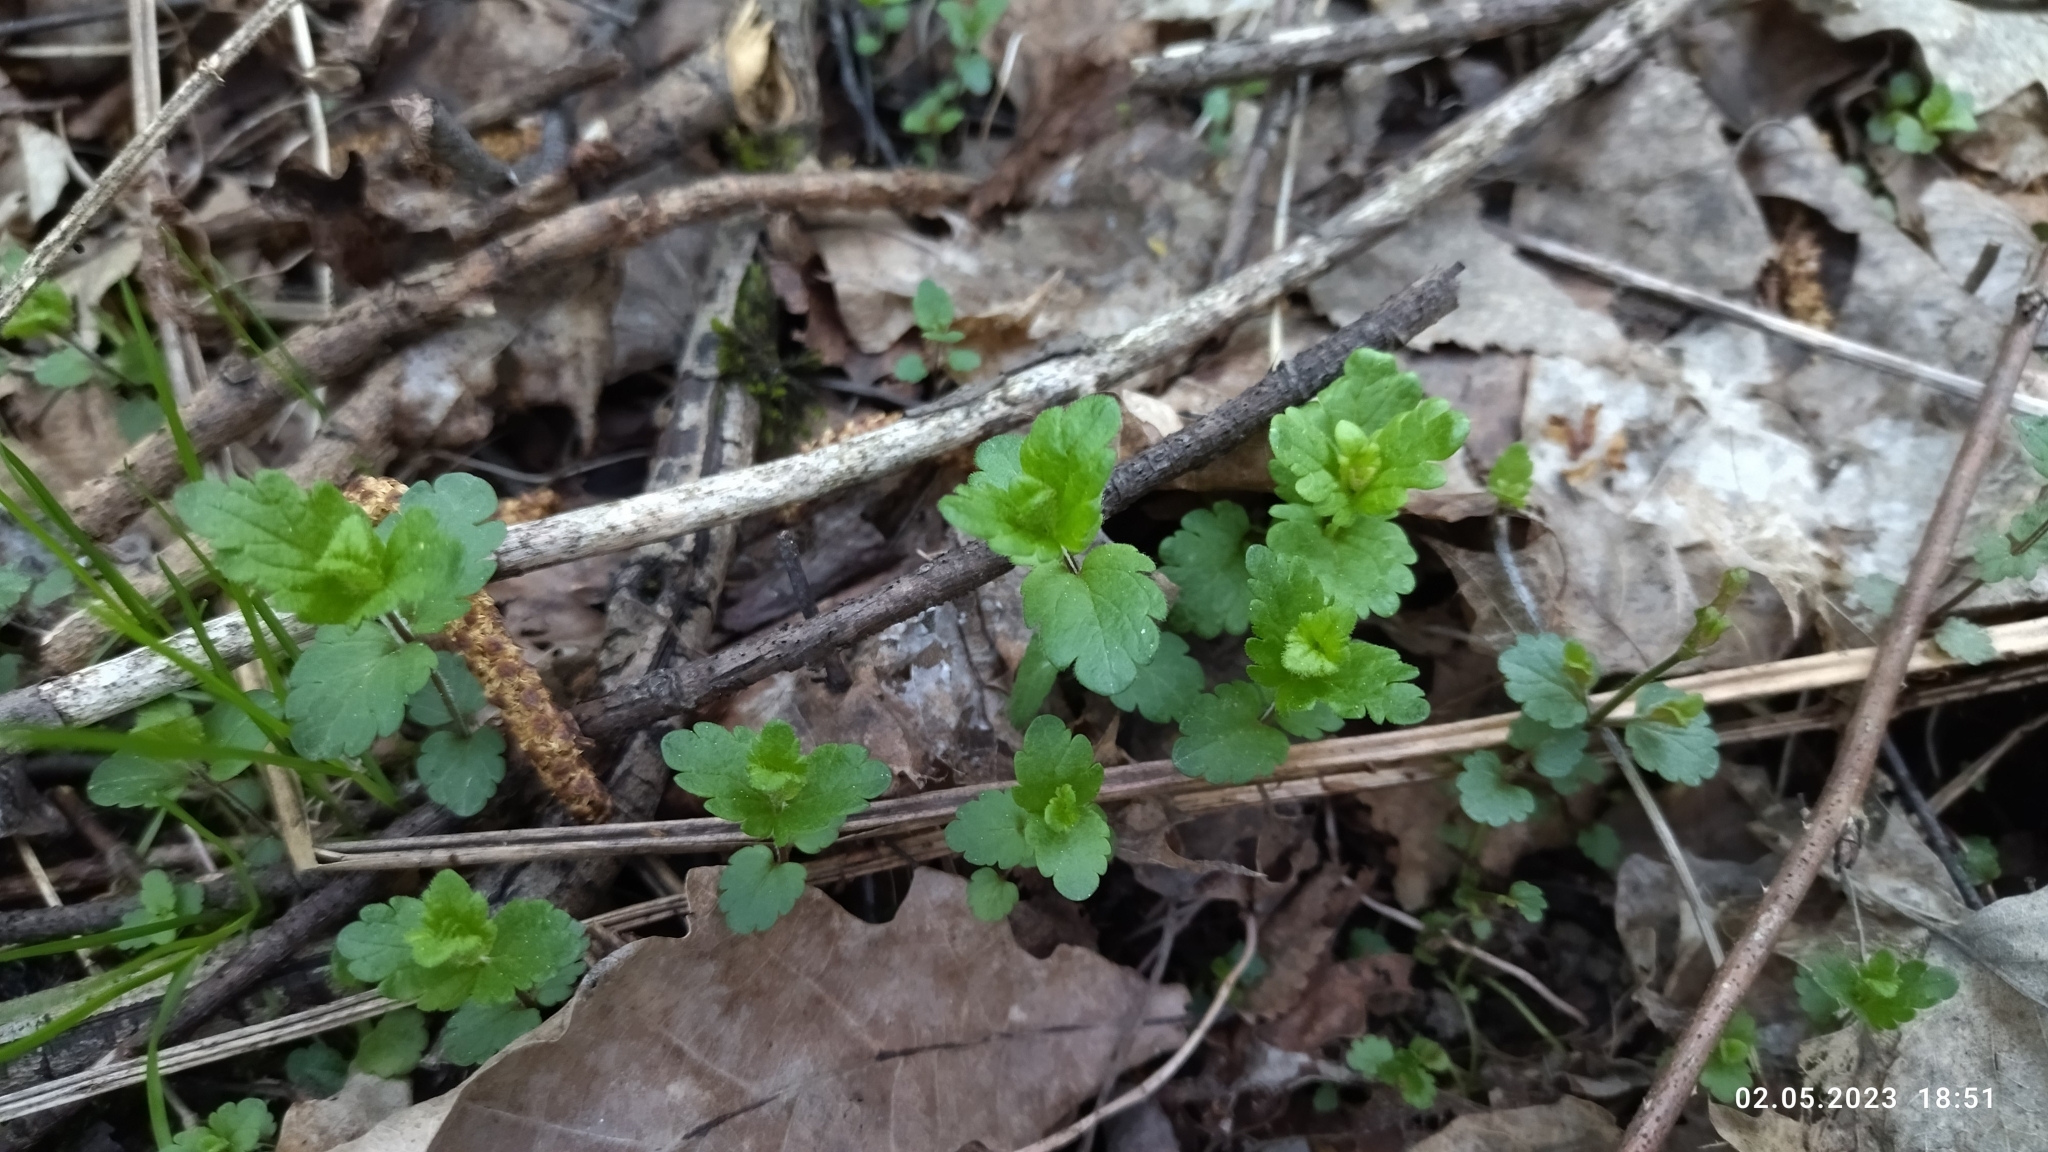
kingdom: Plantae
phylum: Tracheophyta
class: Magnoliopsida
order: Lamiales
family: Plantaginaceae
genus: Veronica
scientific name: Veronica chamaedrys
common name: Germander speedwell
